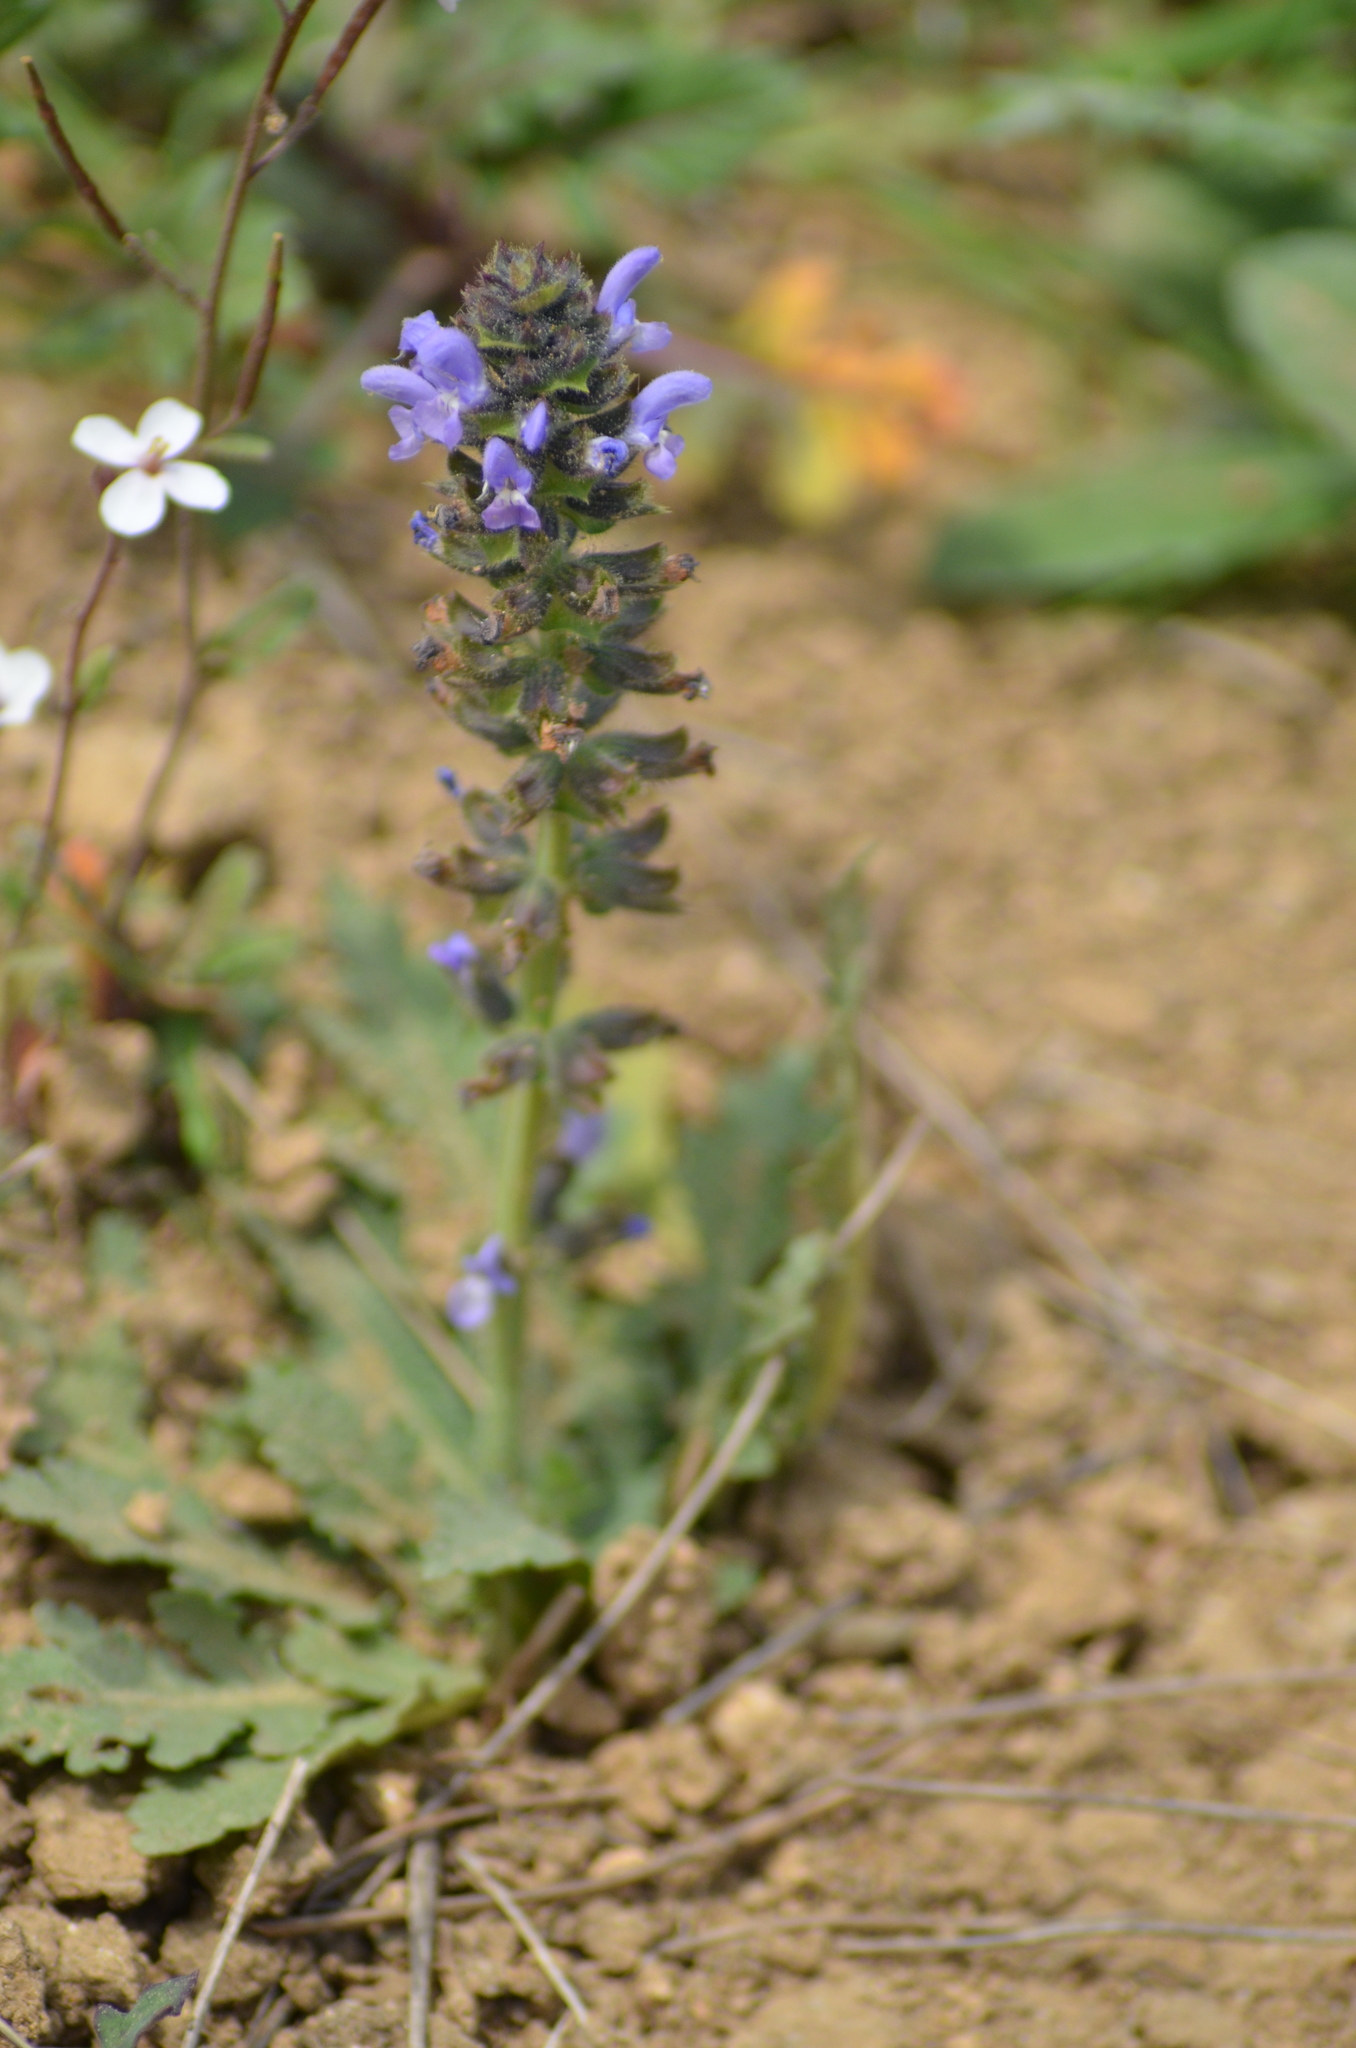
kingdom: Plantae
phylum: Tracheophyta
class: Magnoliopsida
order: Lamiales
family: Lamiaceae
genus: Salvia
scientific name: Salvia verbenaca
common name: Wild clary
